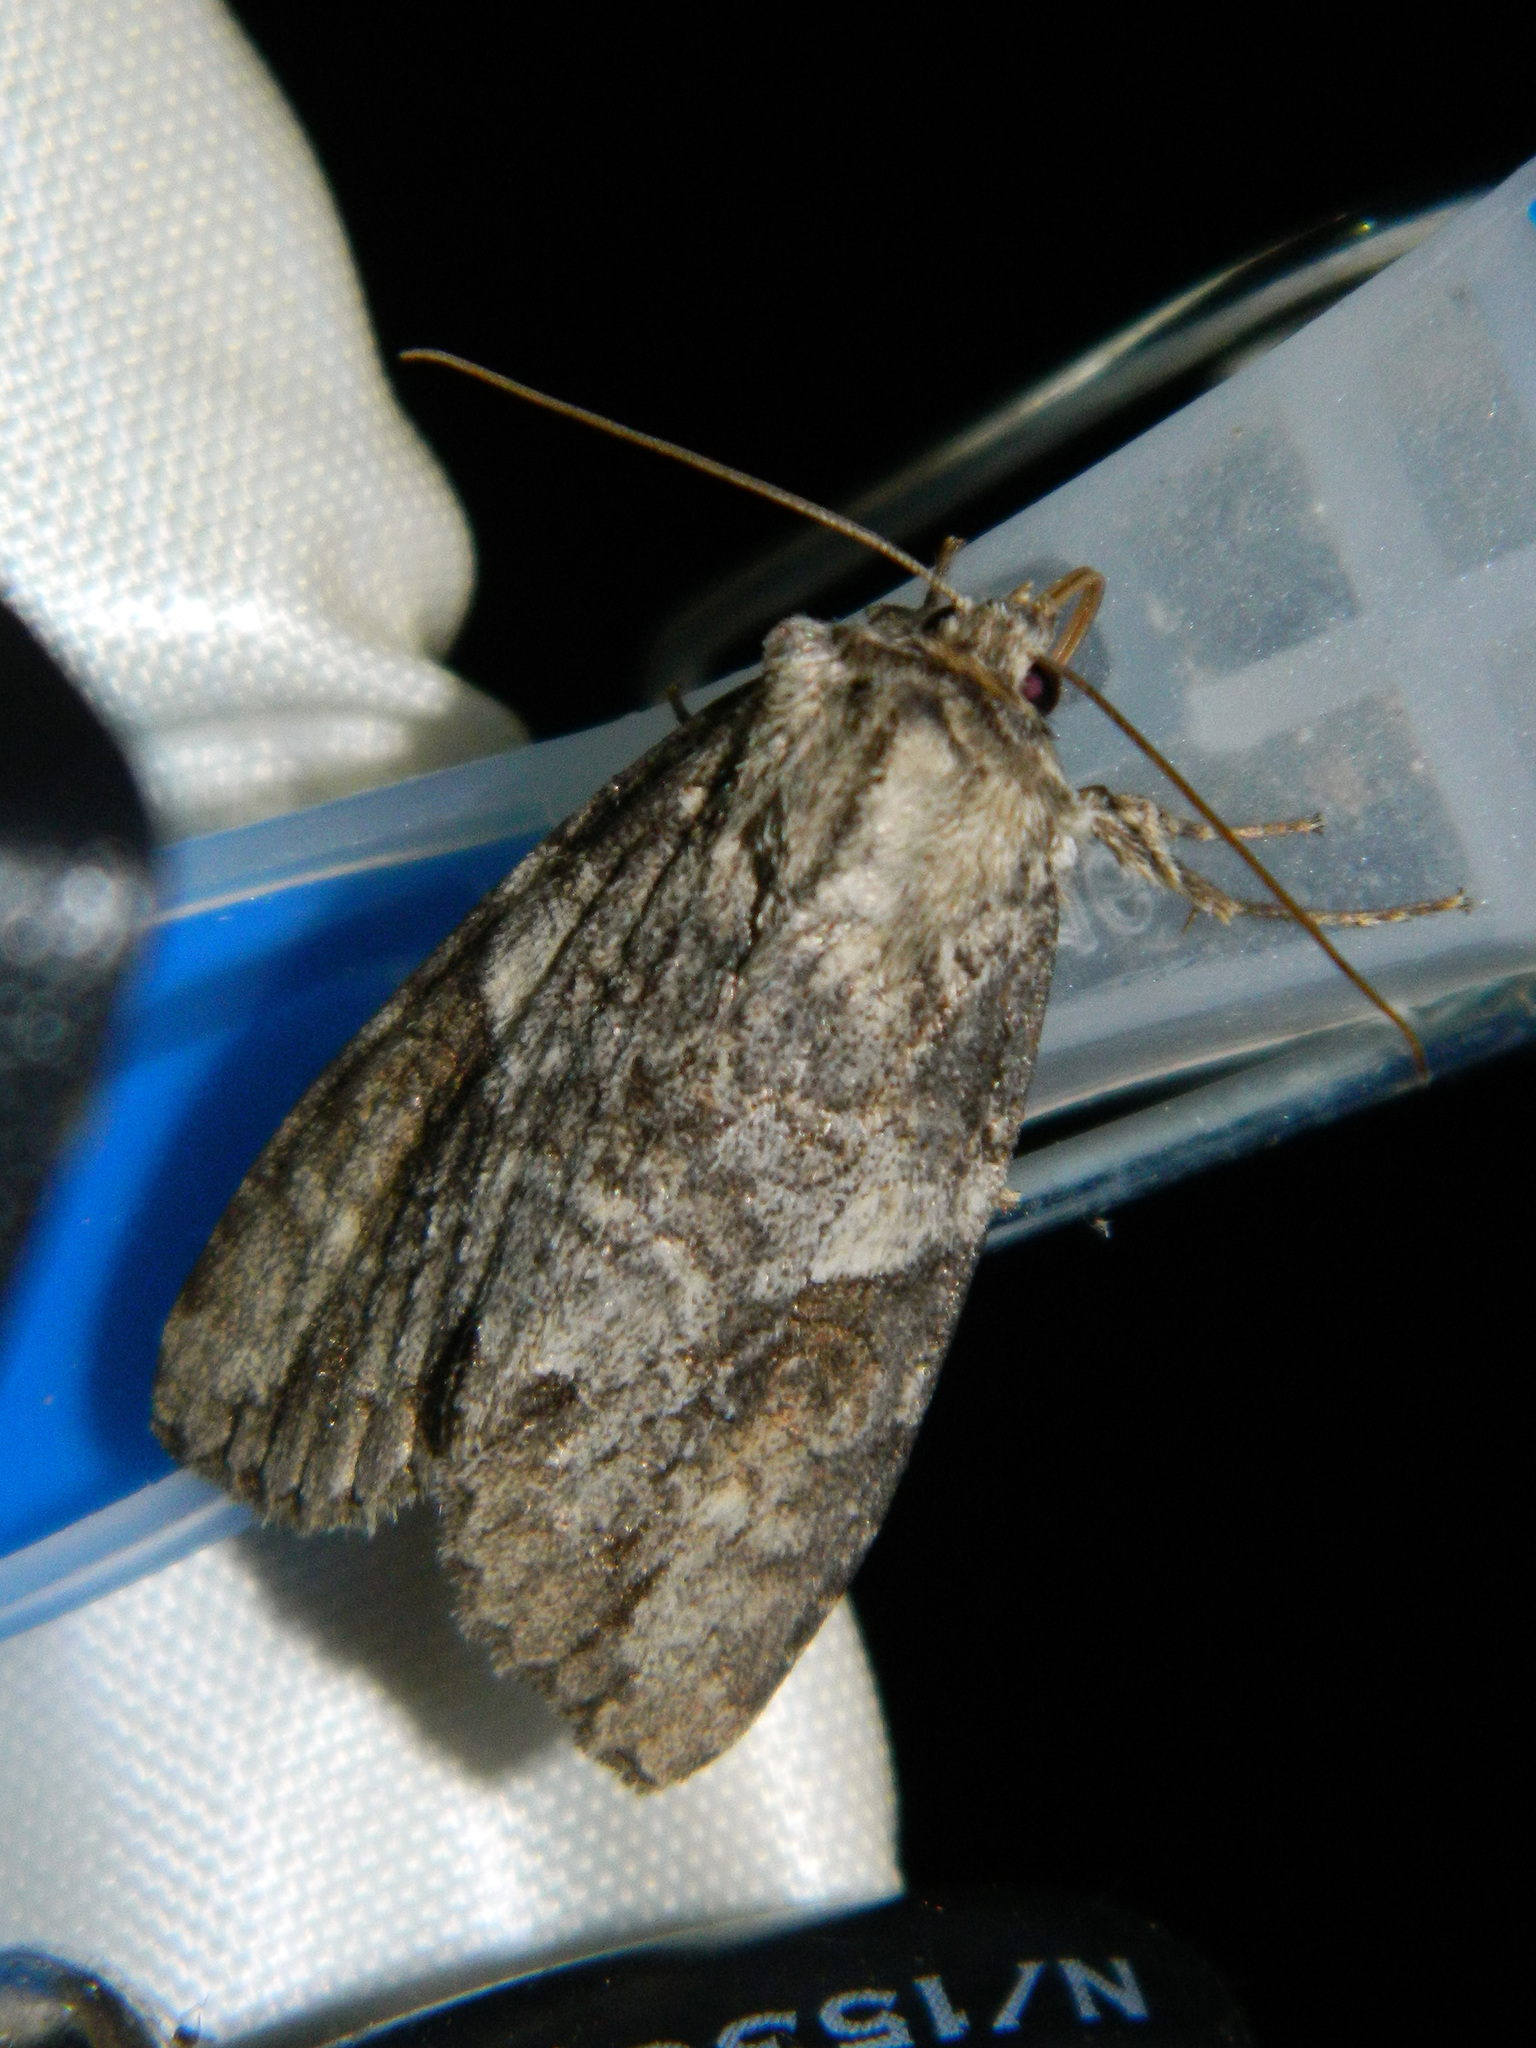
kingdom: Animalia
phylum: Arthropoda
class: Insecta
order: Lepidoptera
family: Noctuidae
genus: Achatia
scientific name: Achatia latex
